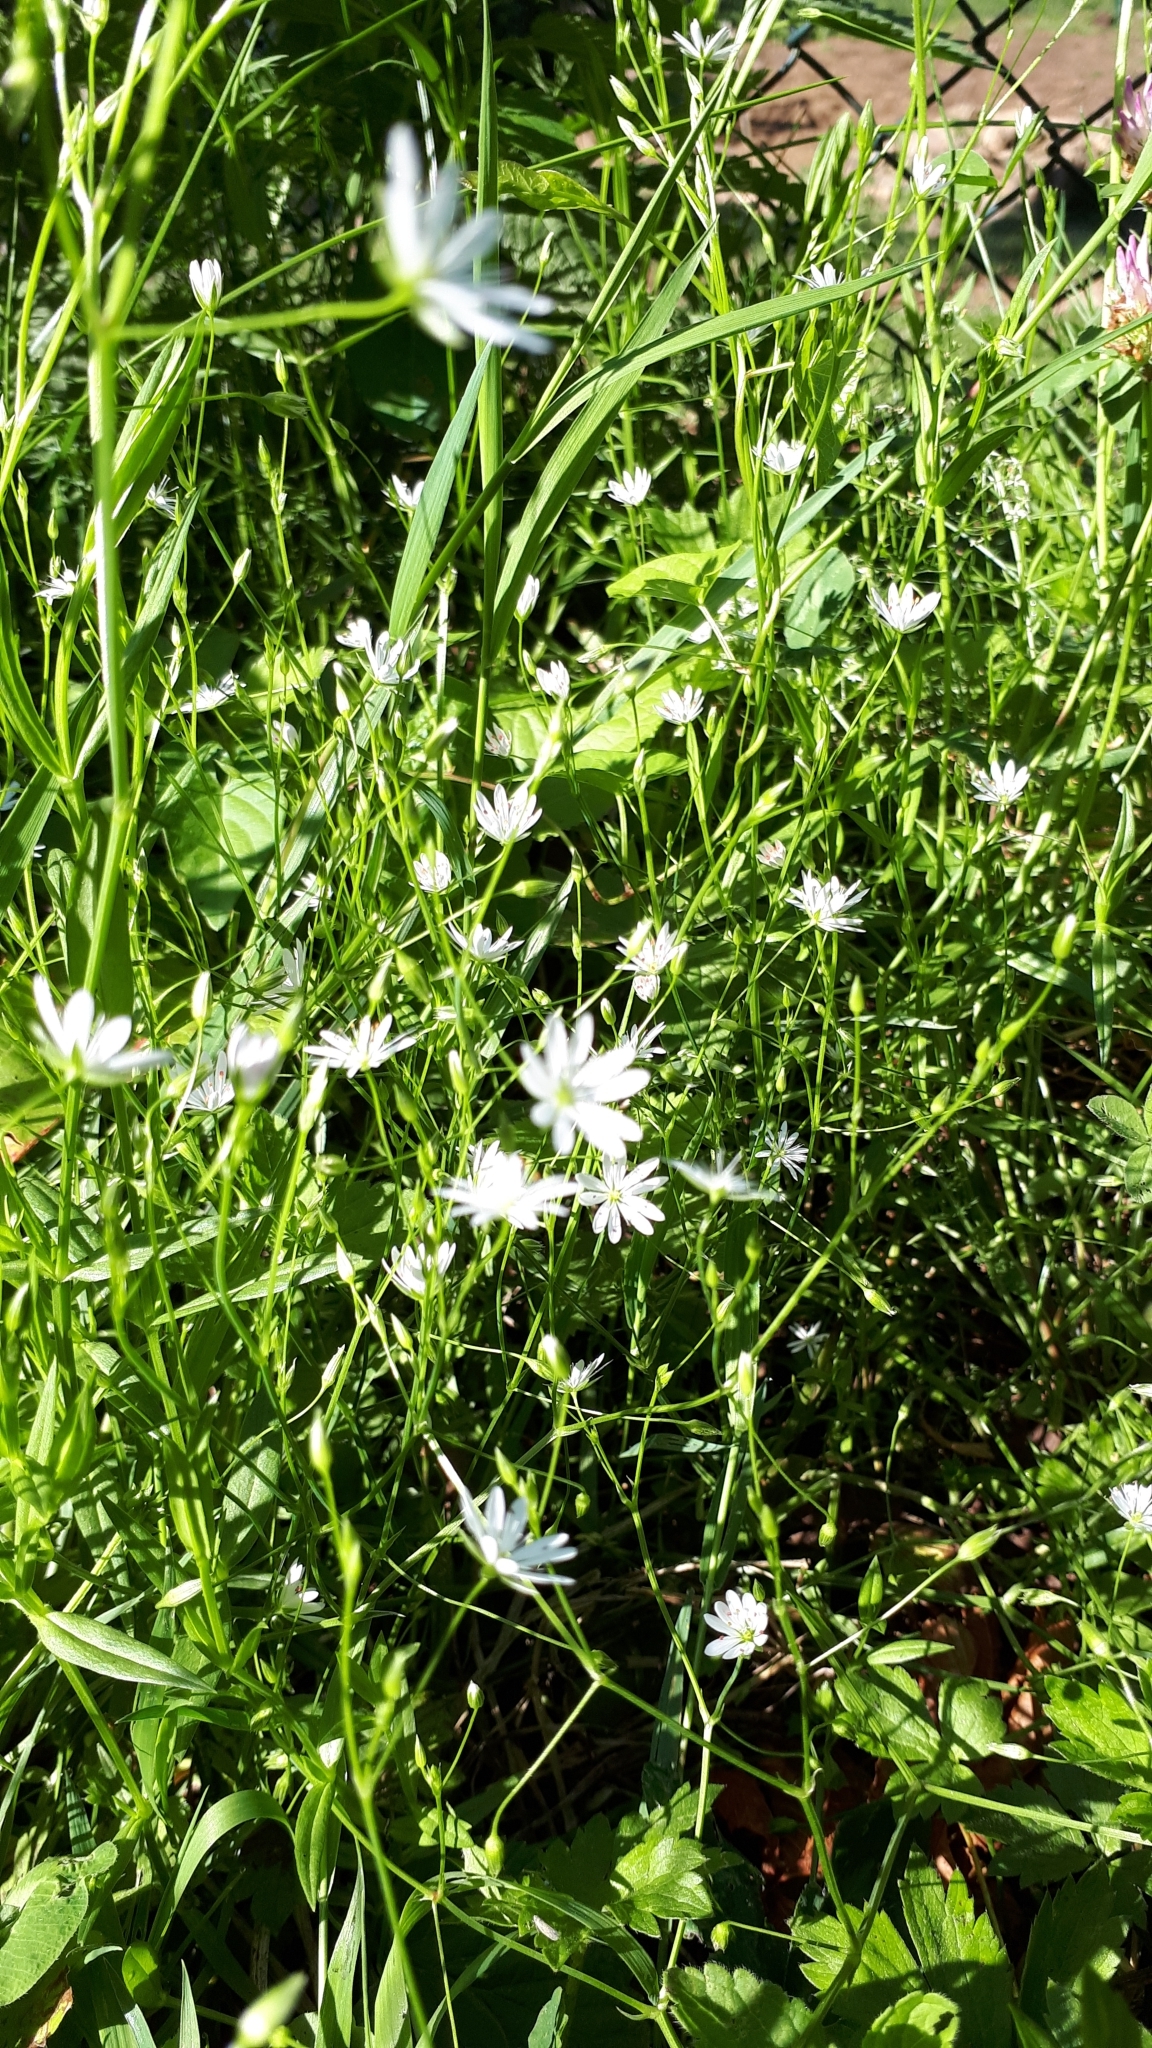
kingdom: Plantae
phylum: Tracheophyta
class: Magnoliopsida
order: Caryophyllales
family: Caryophyllaceae
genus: Stellaria
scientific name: Stellaria graminea
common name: Grass-like starwort
